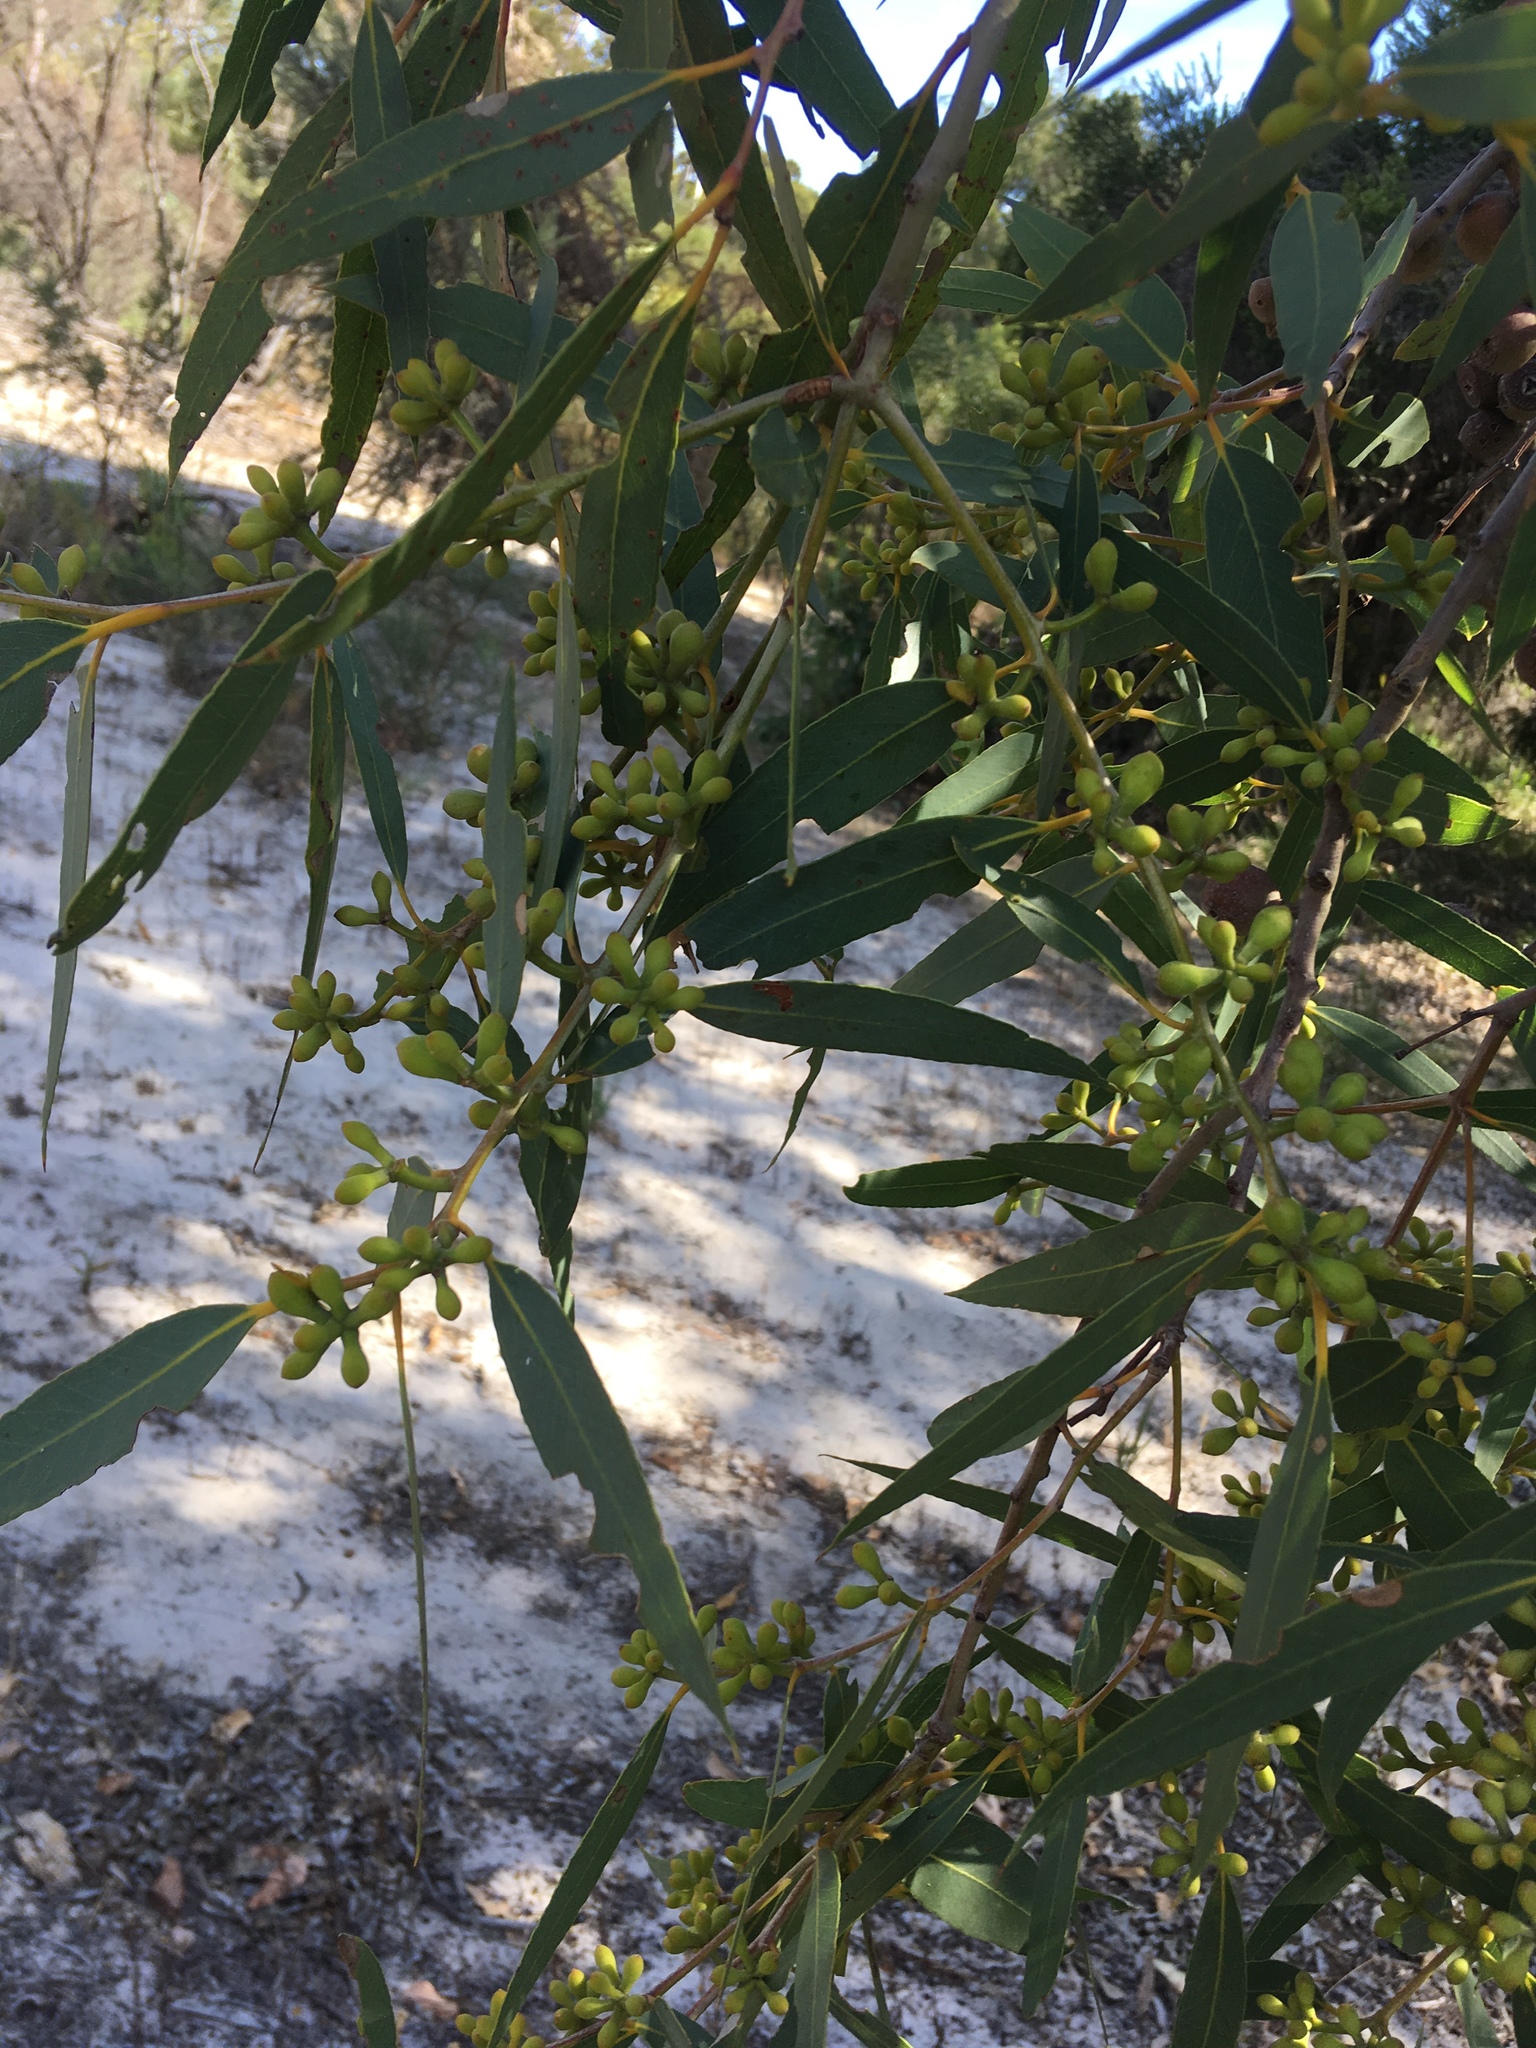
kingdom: Plantae
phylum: Tracheophyta
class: Magnoliopsida
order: Myrtales
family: Myrtaceae
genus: Eucalyptus
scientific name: Eucalyptus todtiana
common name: Coastal blackbutt
